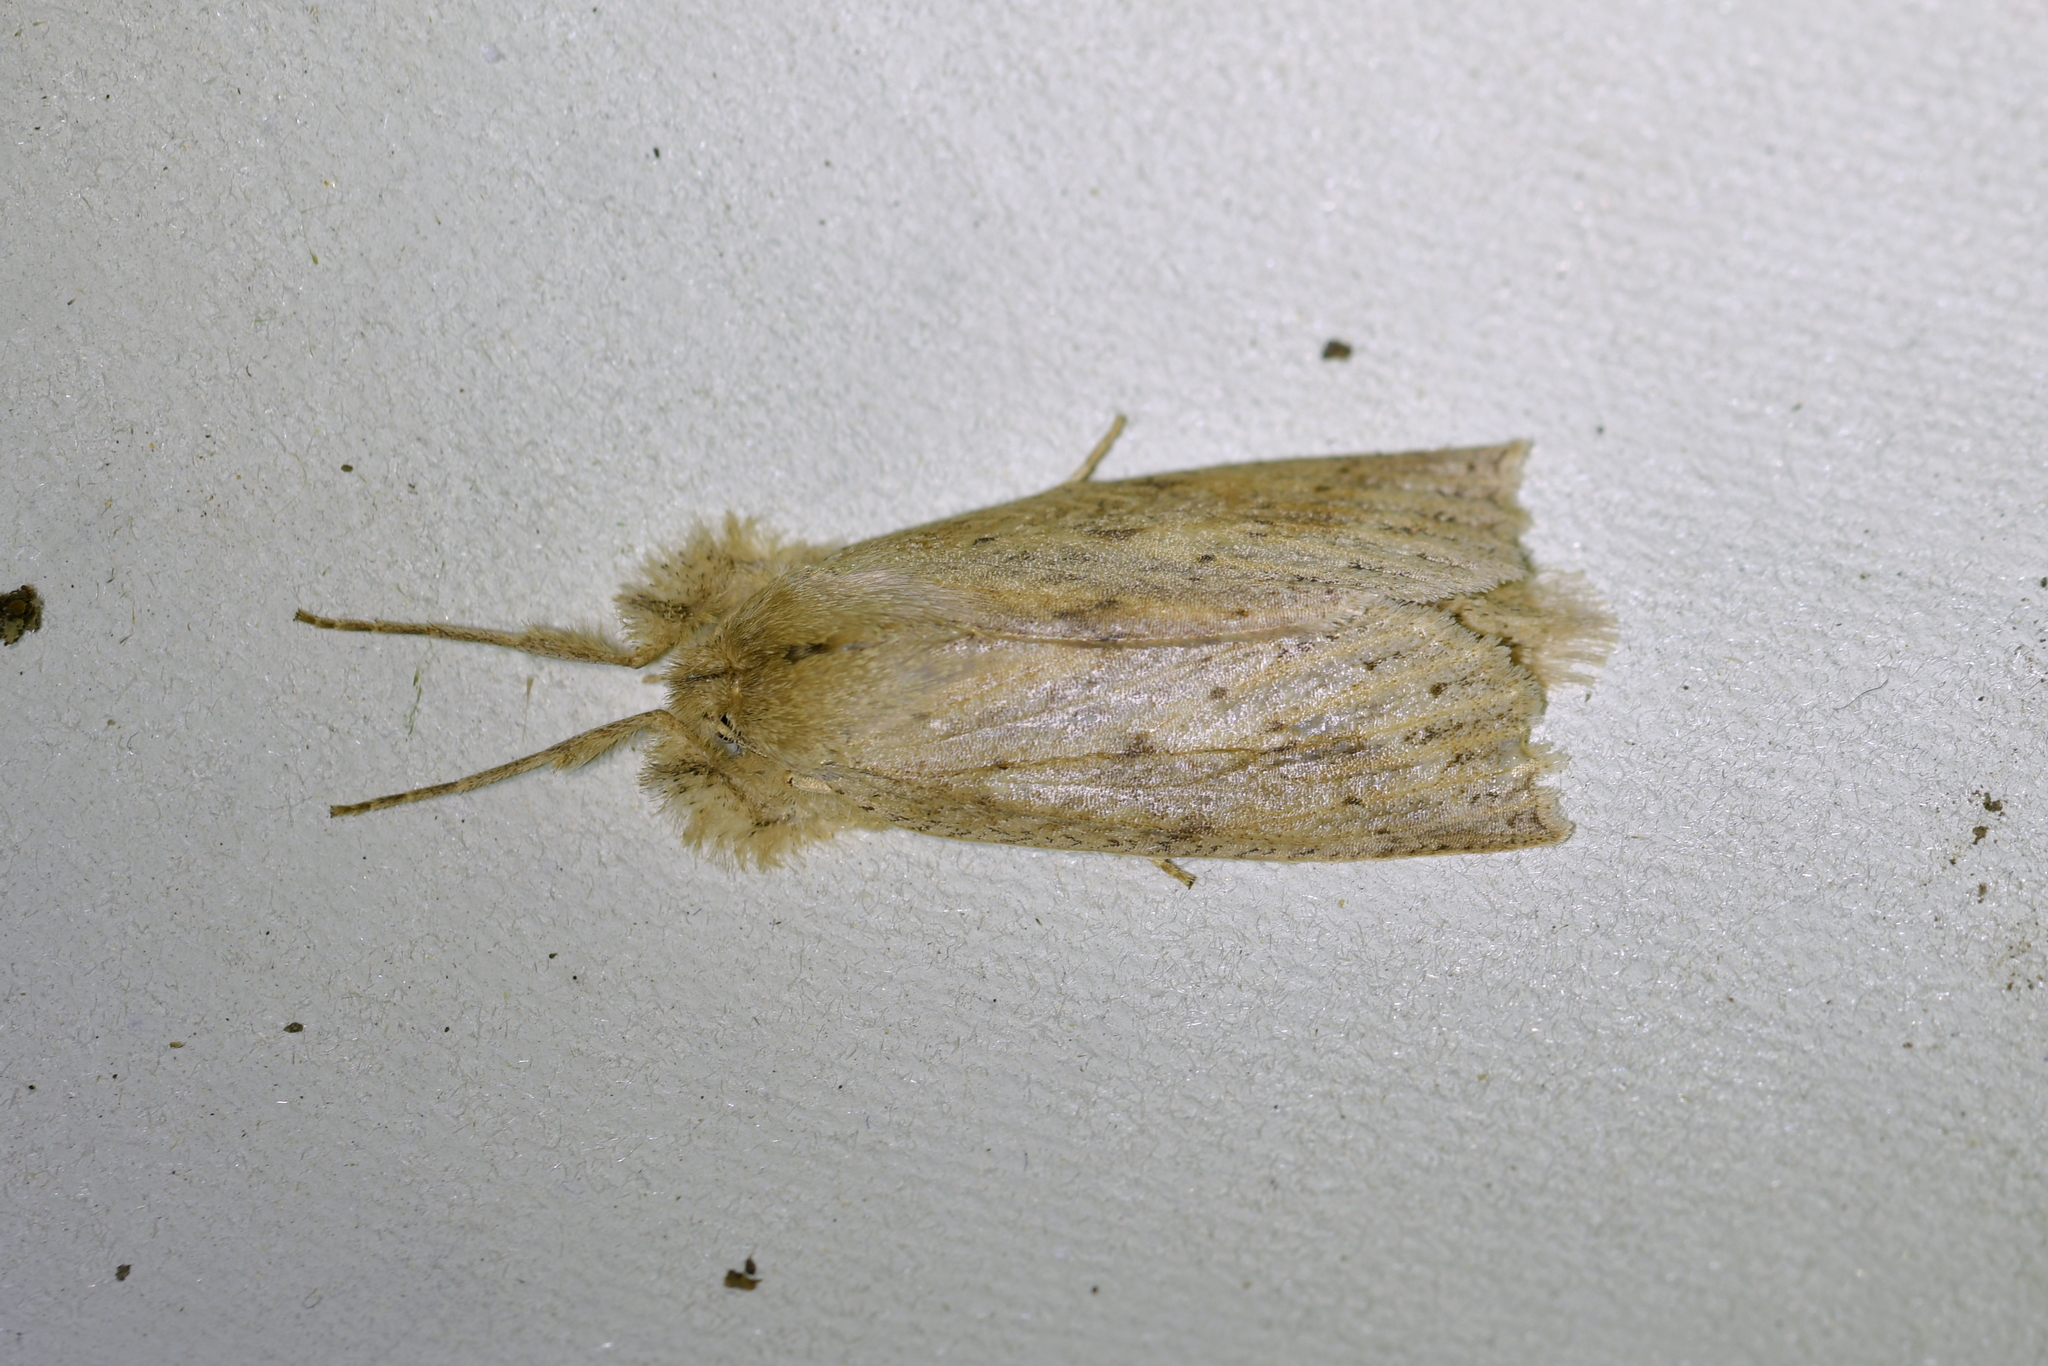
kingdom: Animalia
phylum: Arthropoda
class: Insecta
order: Lepidoptera
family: Geometridae
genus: Declana
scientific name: Declana leptomera
